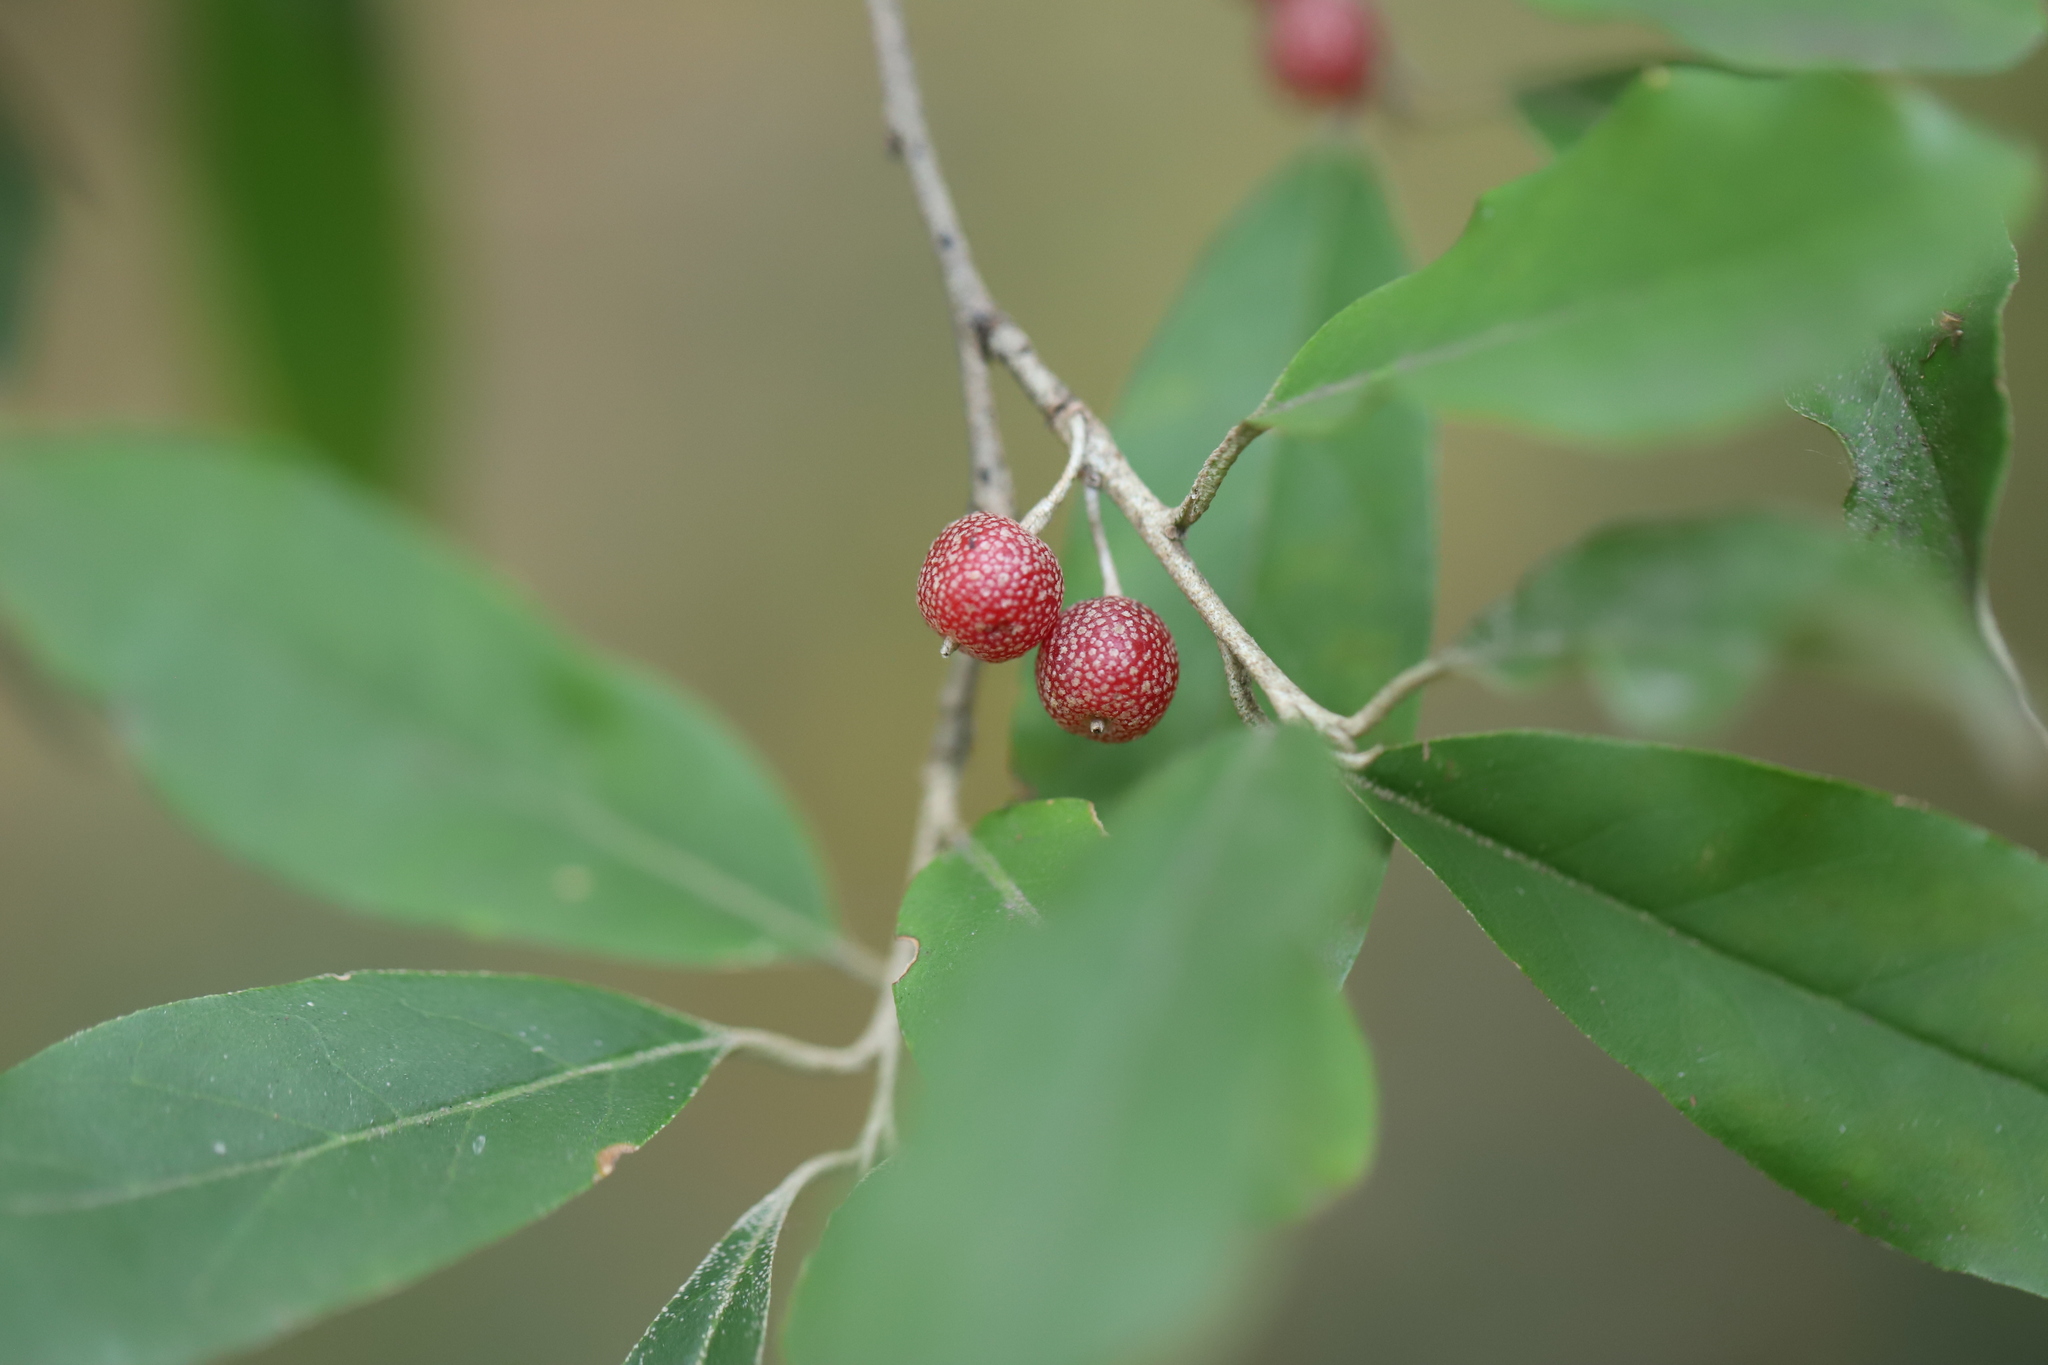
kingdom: Plantae
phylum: Tracheophyta
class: Magnoliopsida
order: Rosales
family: Elaeagnaceae
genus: Elaeagnus
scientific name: Elaeagnus umbellata
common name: Autumn olive
